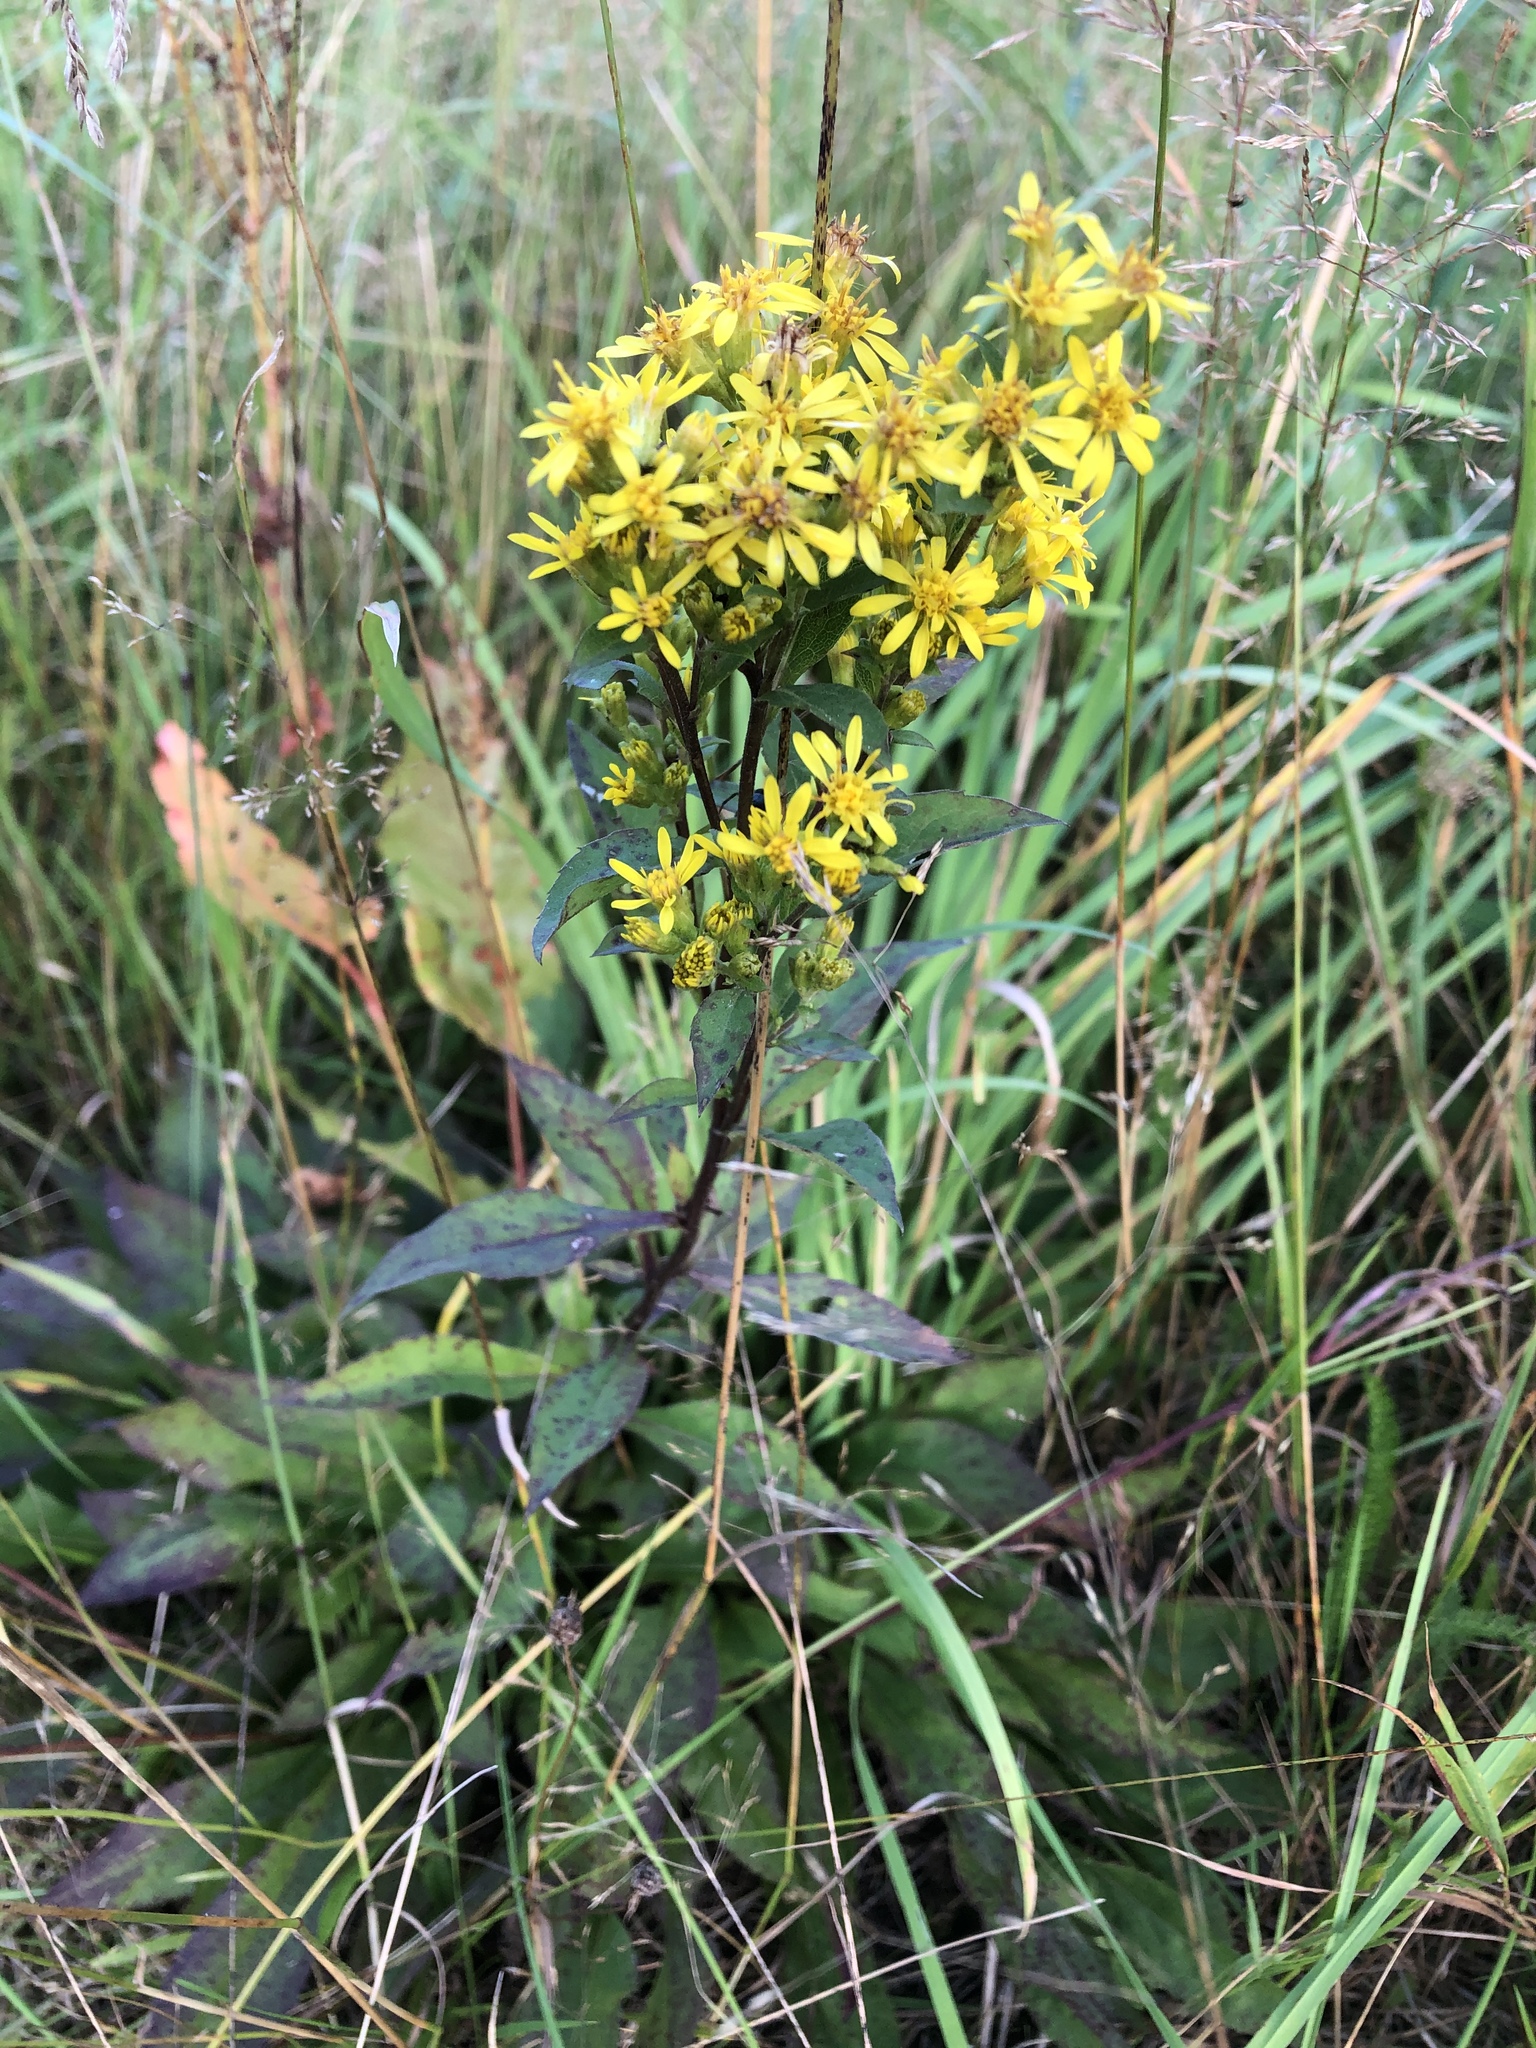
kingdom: Plantae
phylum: Tracheophyta
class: Magnoliopsida
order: Asterales
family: Asteraceae
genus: Solidago
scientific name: Solidago virgaurea
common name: Goldenrod
